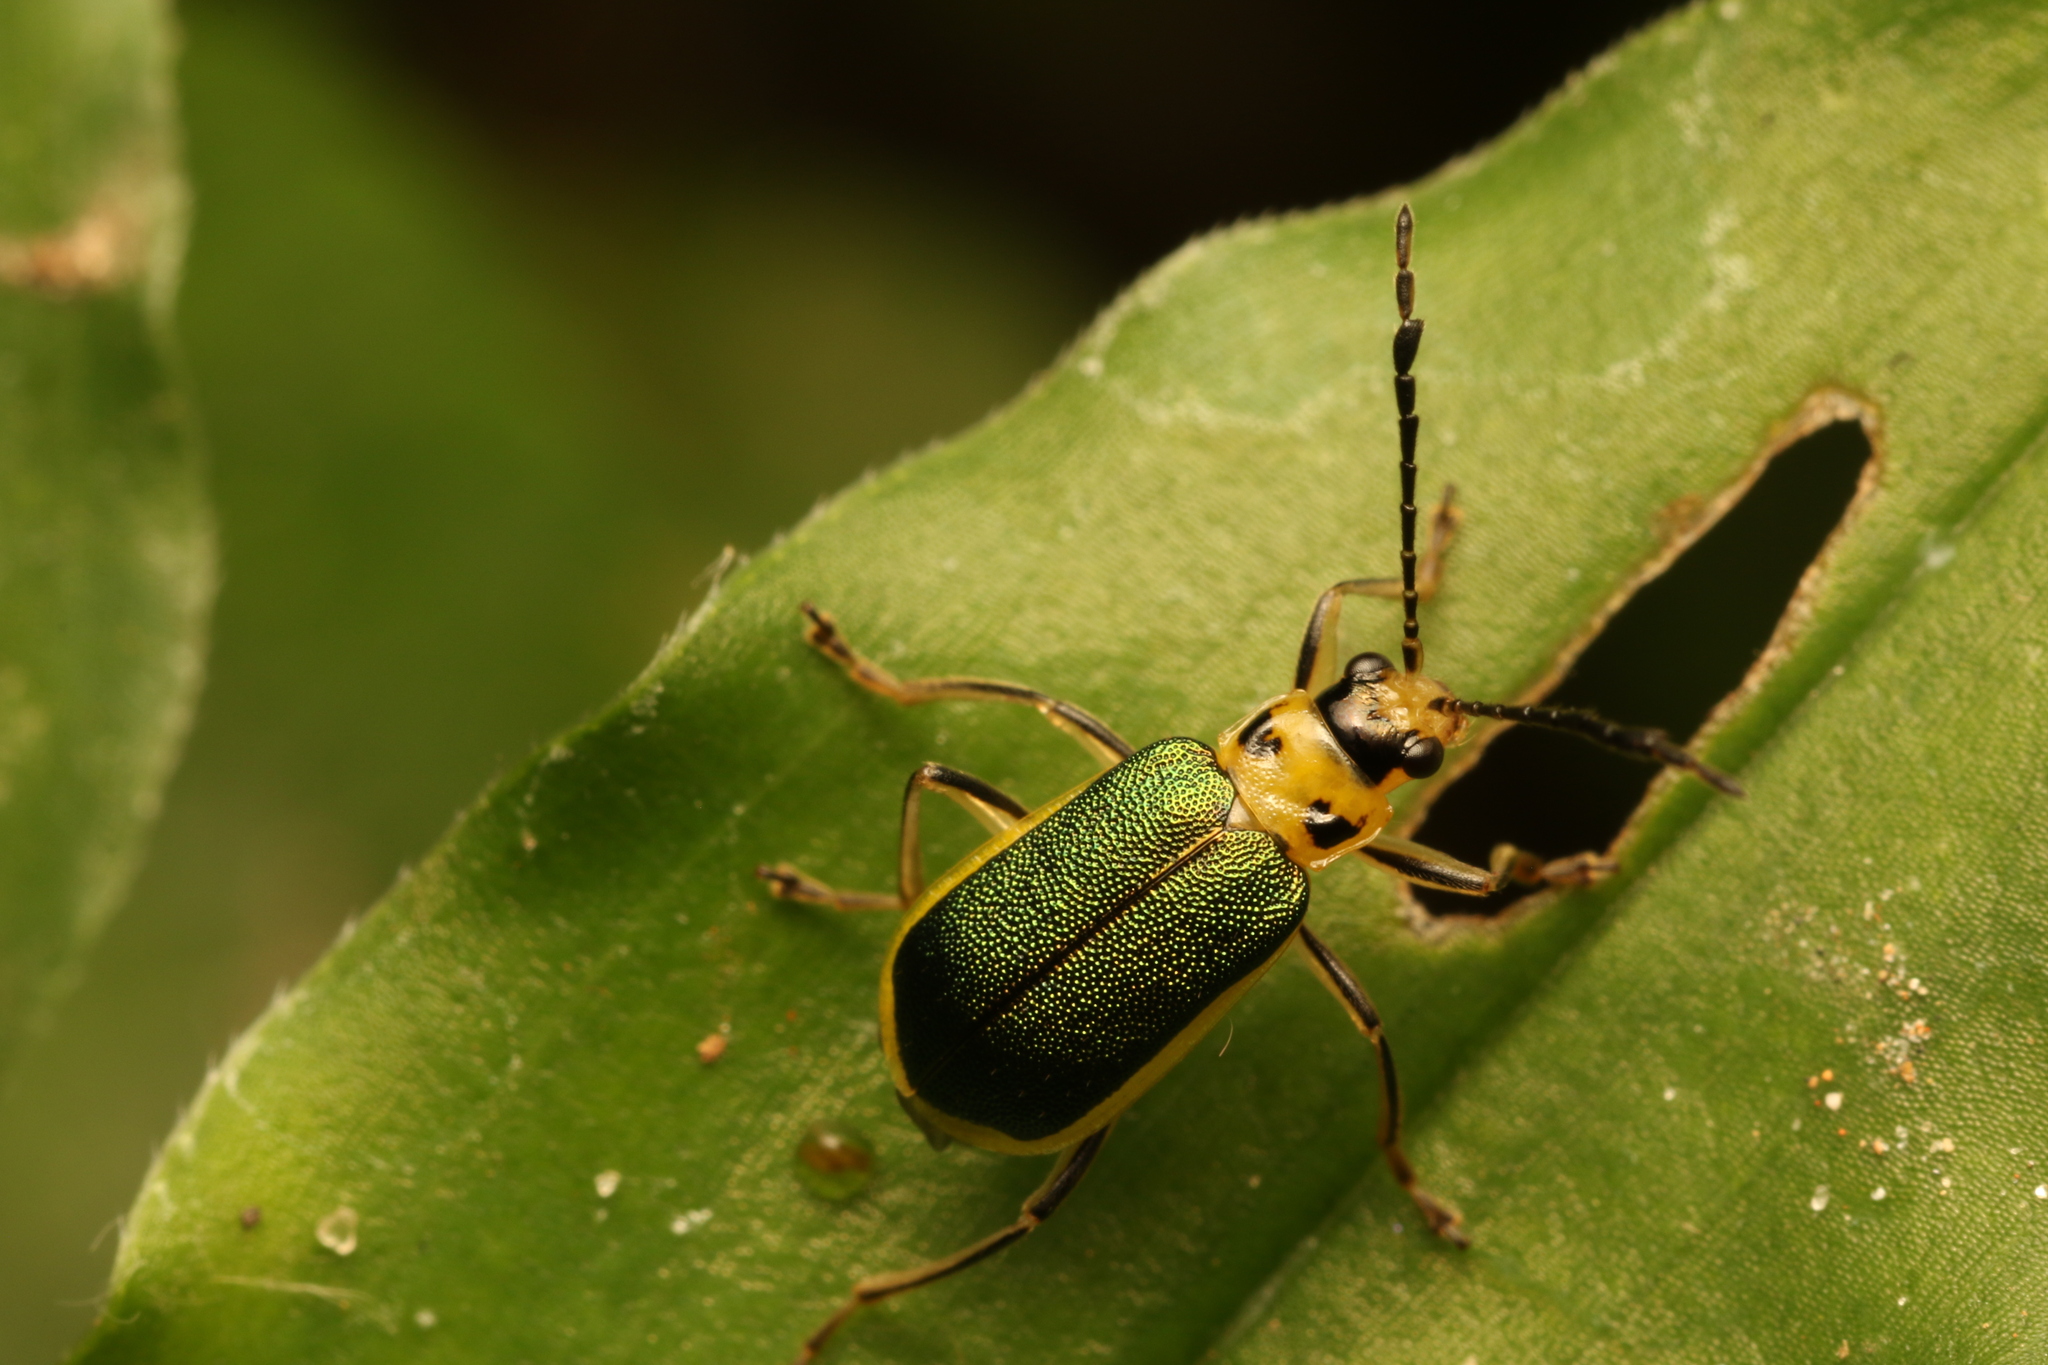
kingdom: Animalia
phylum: Arthropoda
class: Insecta
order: Coleoptera
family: Chrysomelidae
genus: Buckibrotica
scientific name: Buckibrotica
